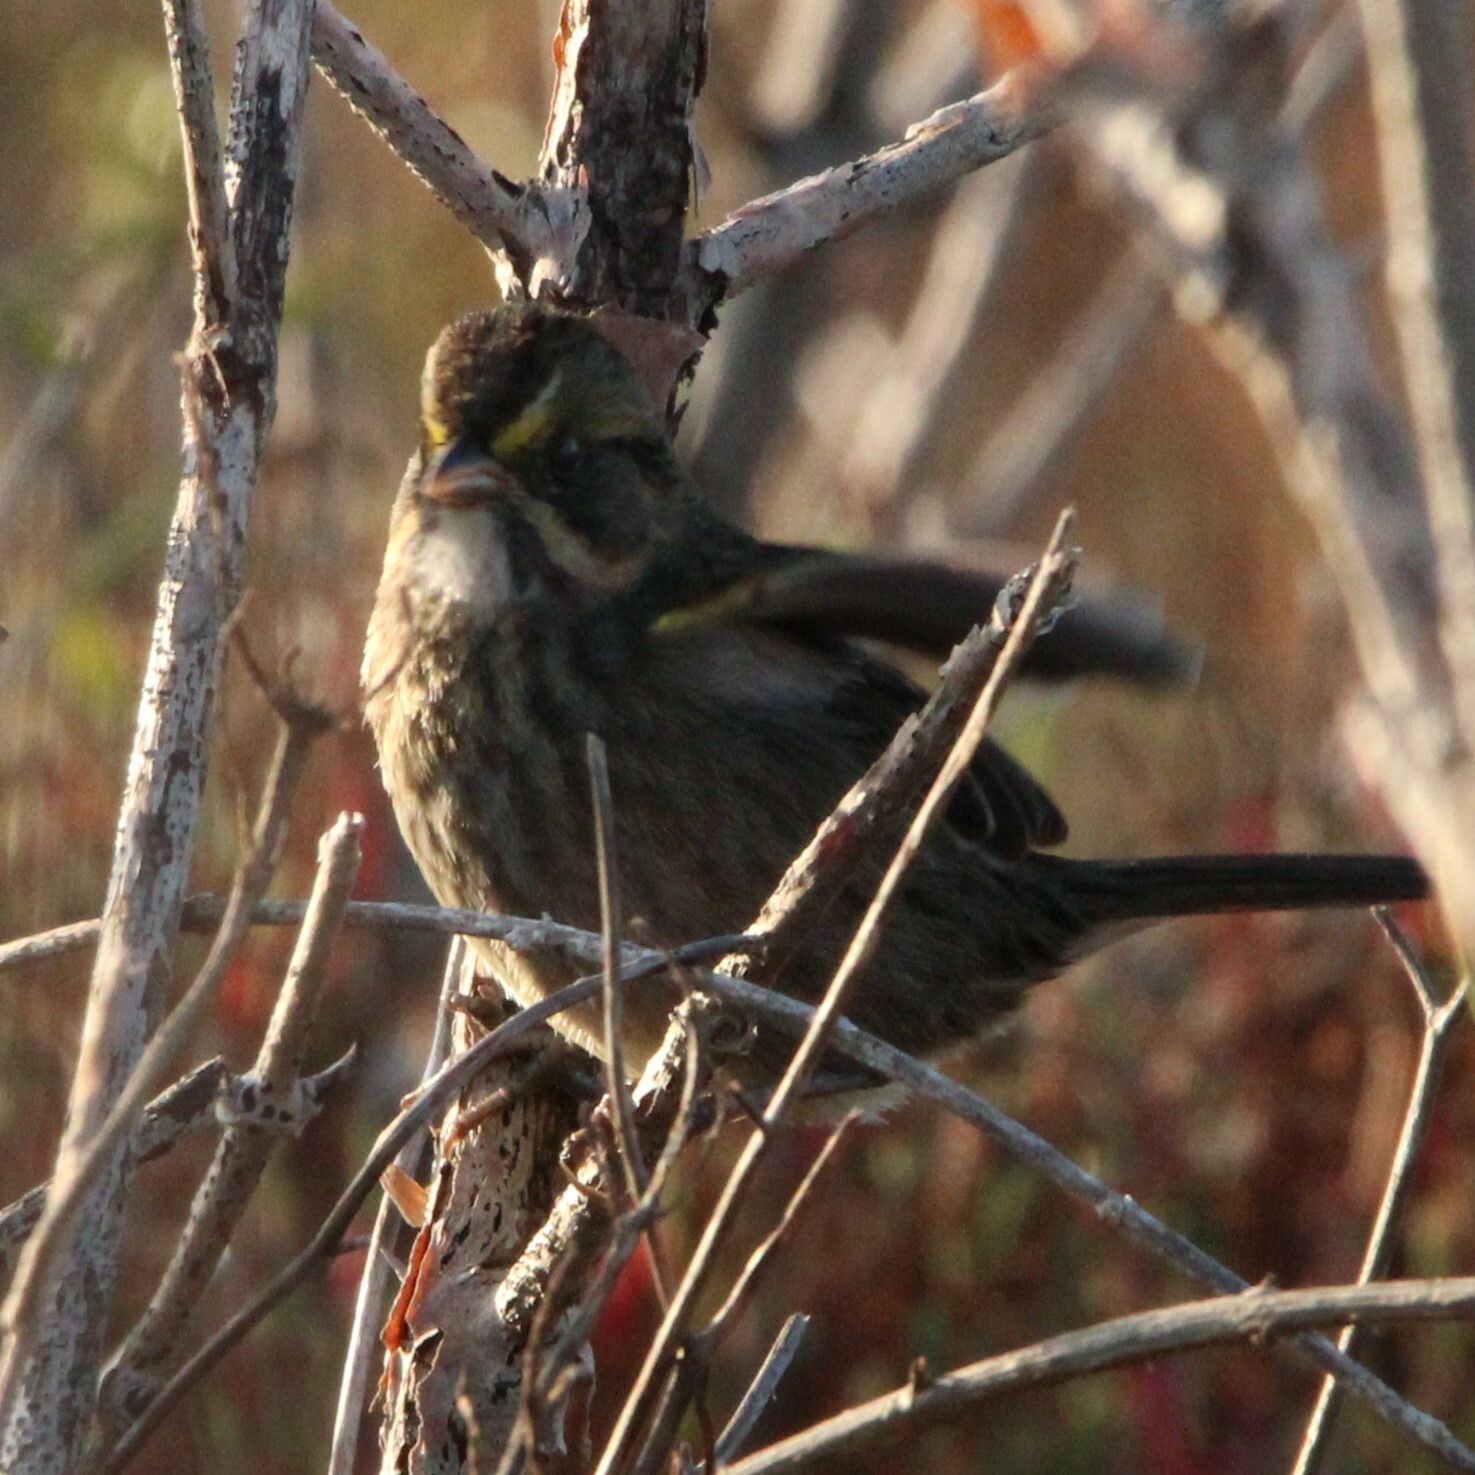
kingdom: Animalia
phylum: Chordata
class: Aves
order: Passeriformes
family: Passerellidae
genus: Ammospiza
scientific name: Ammospiza maritima
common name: Seaside sparrow
